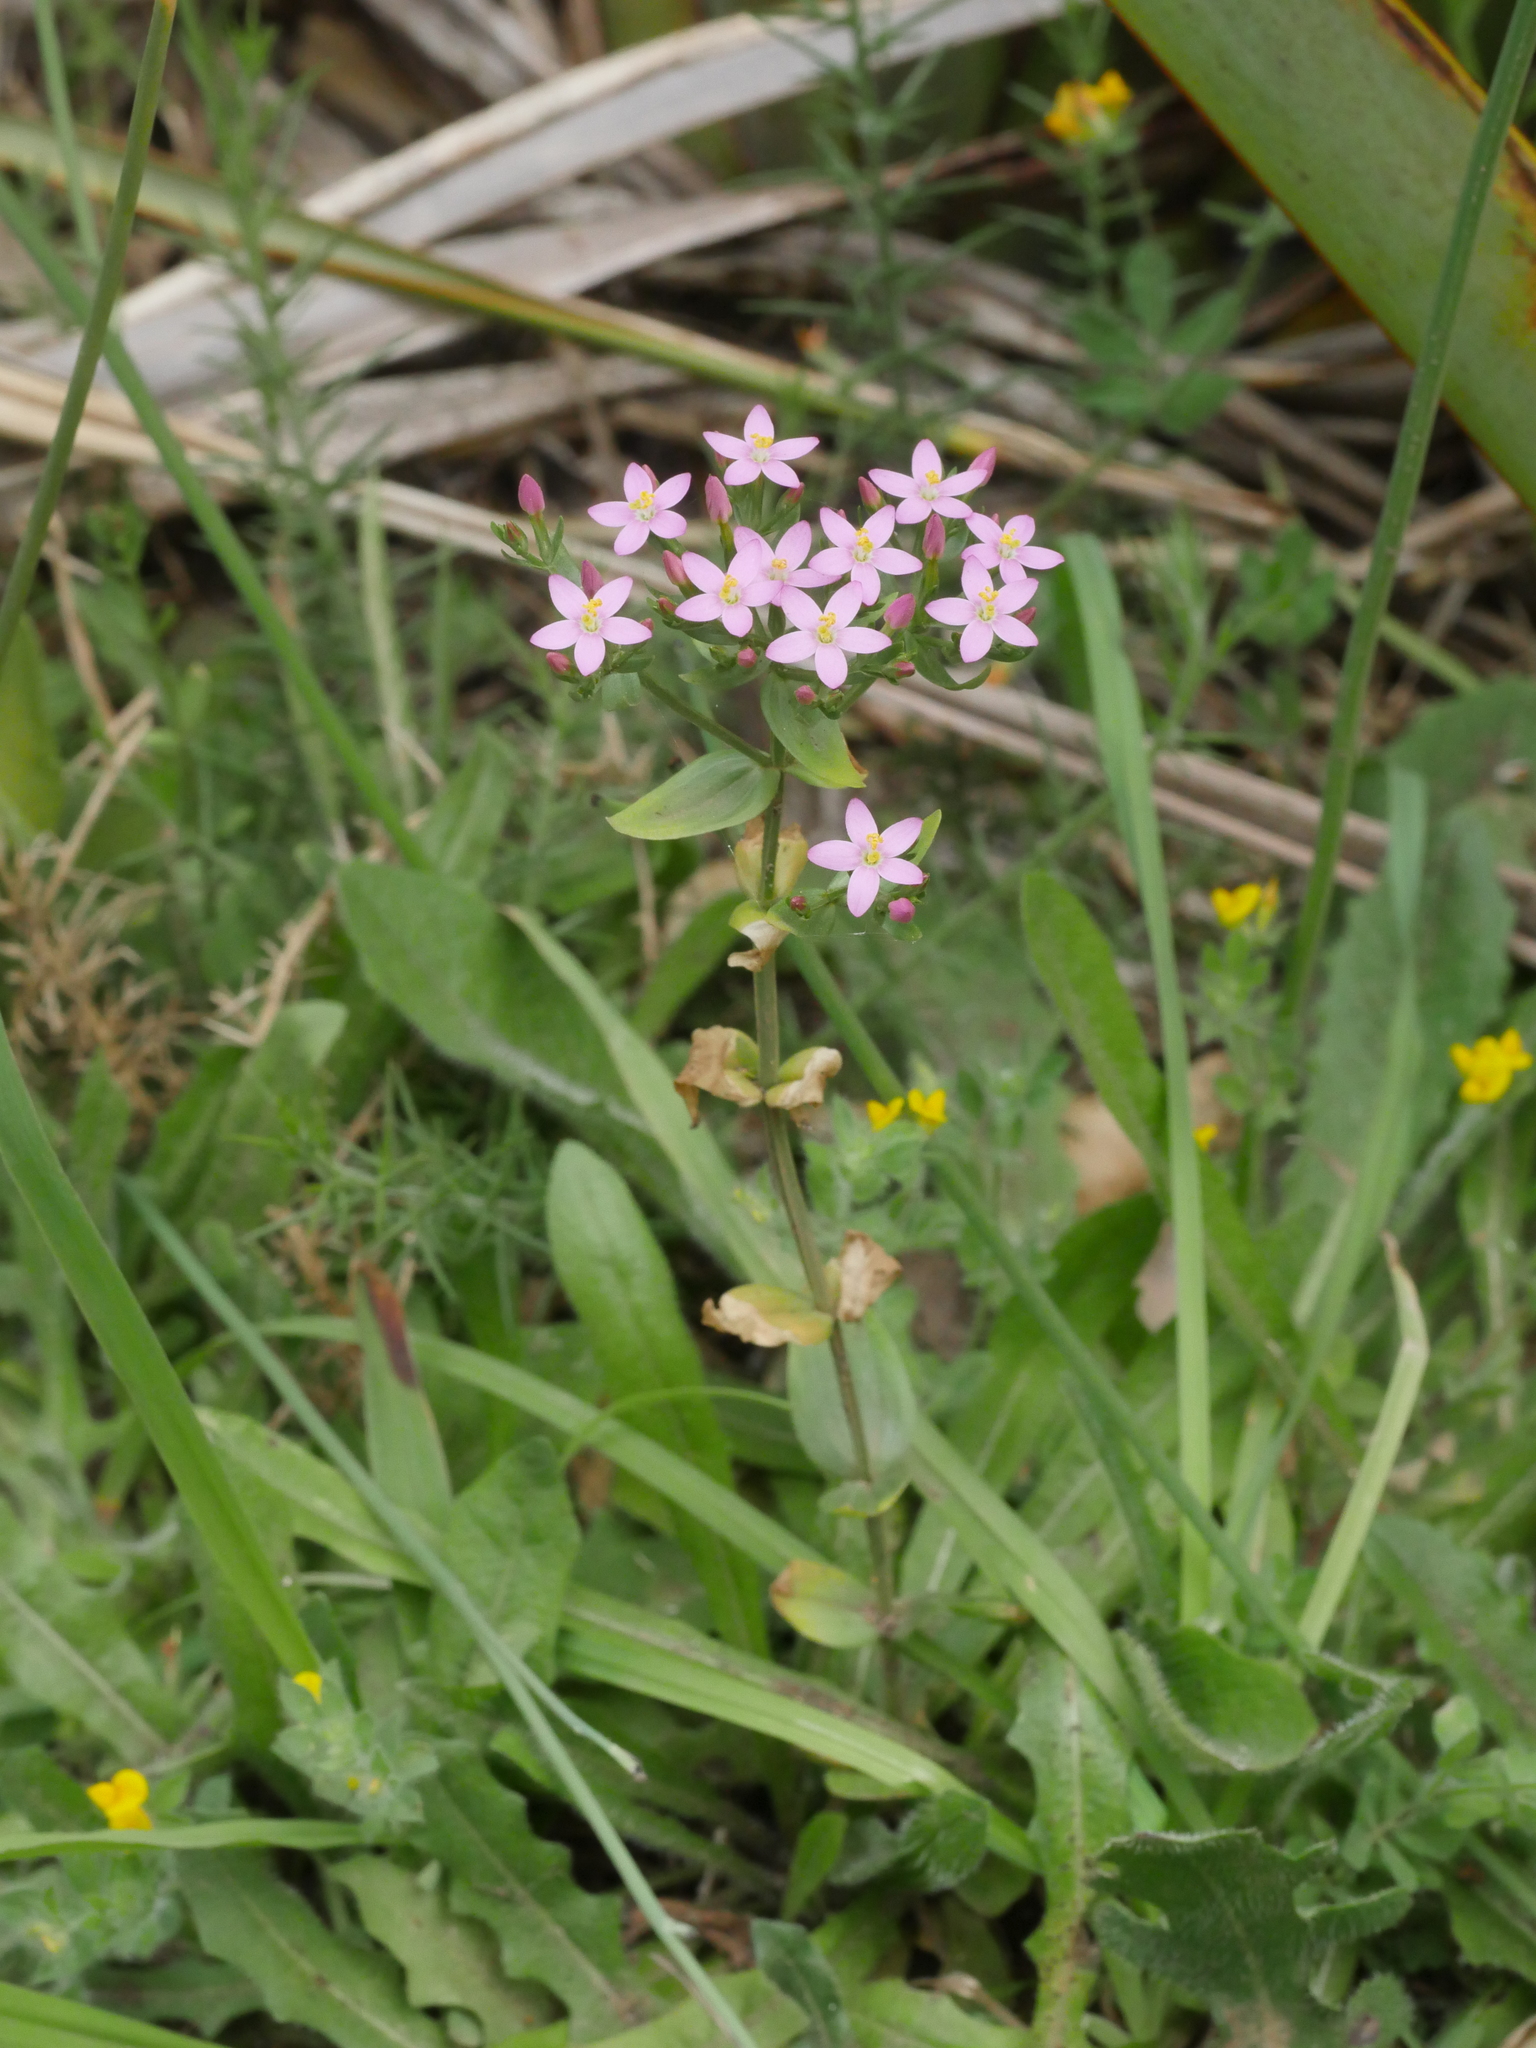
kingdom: Plantae
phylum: Tracheophyta
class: Magnoliopsida
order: Gentianales
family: Gentianaceae
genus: Centaurium
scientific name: Centaurium erythraea
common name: Common centaury
